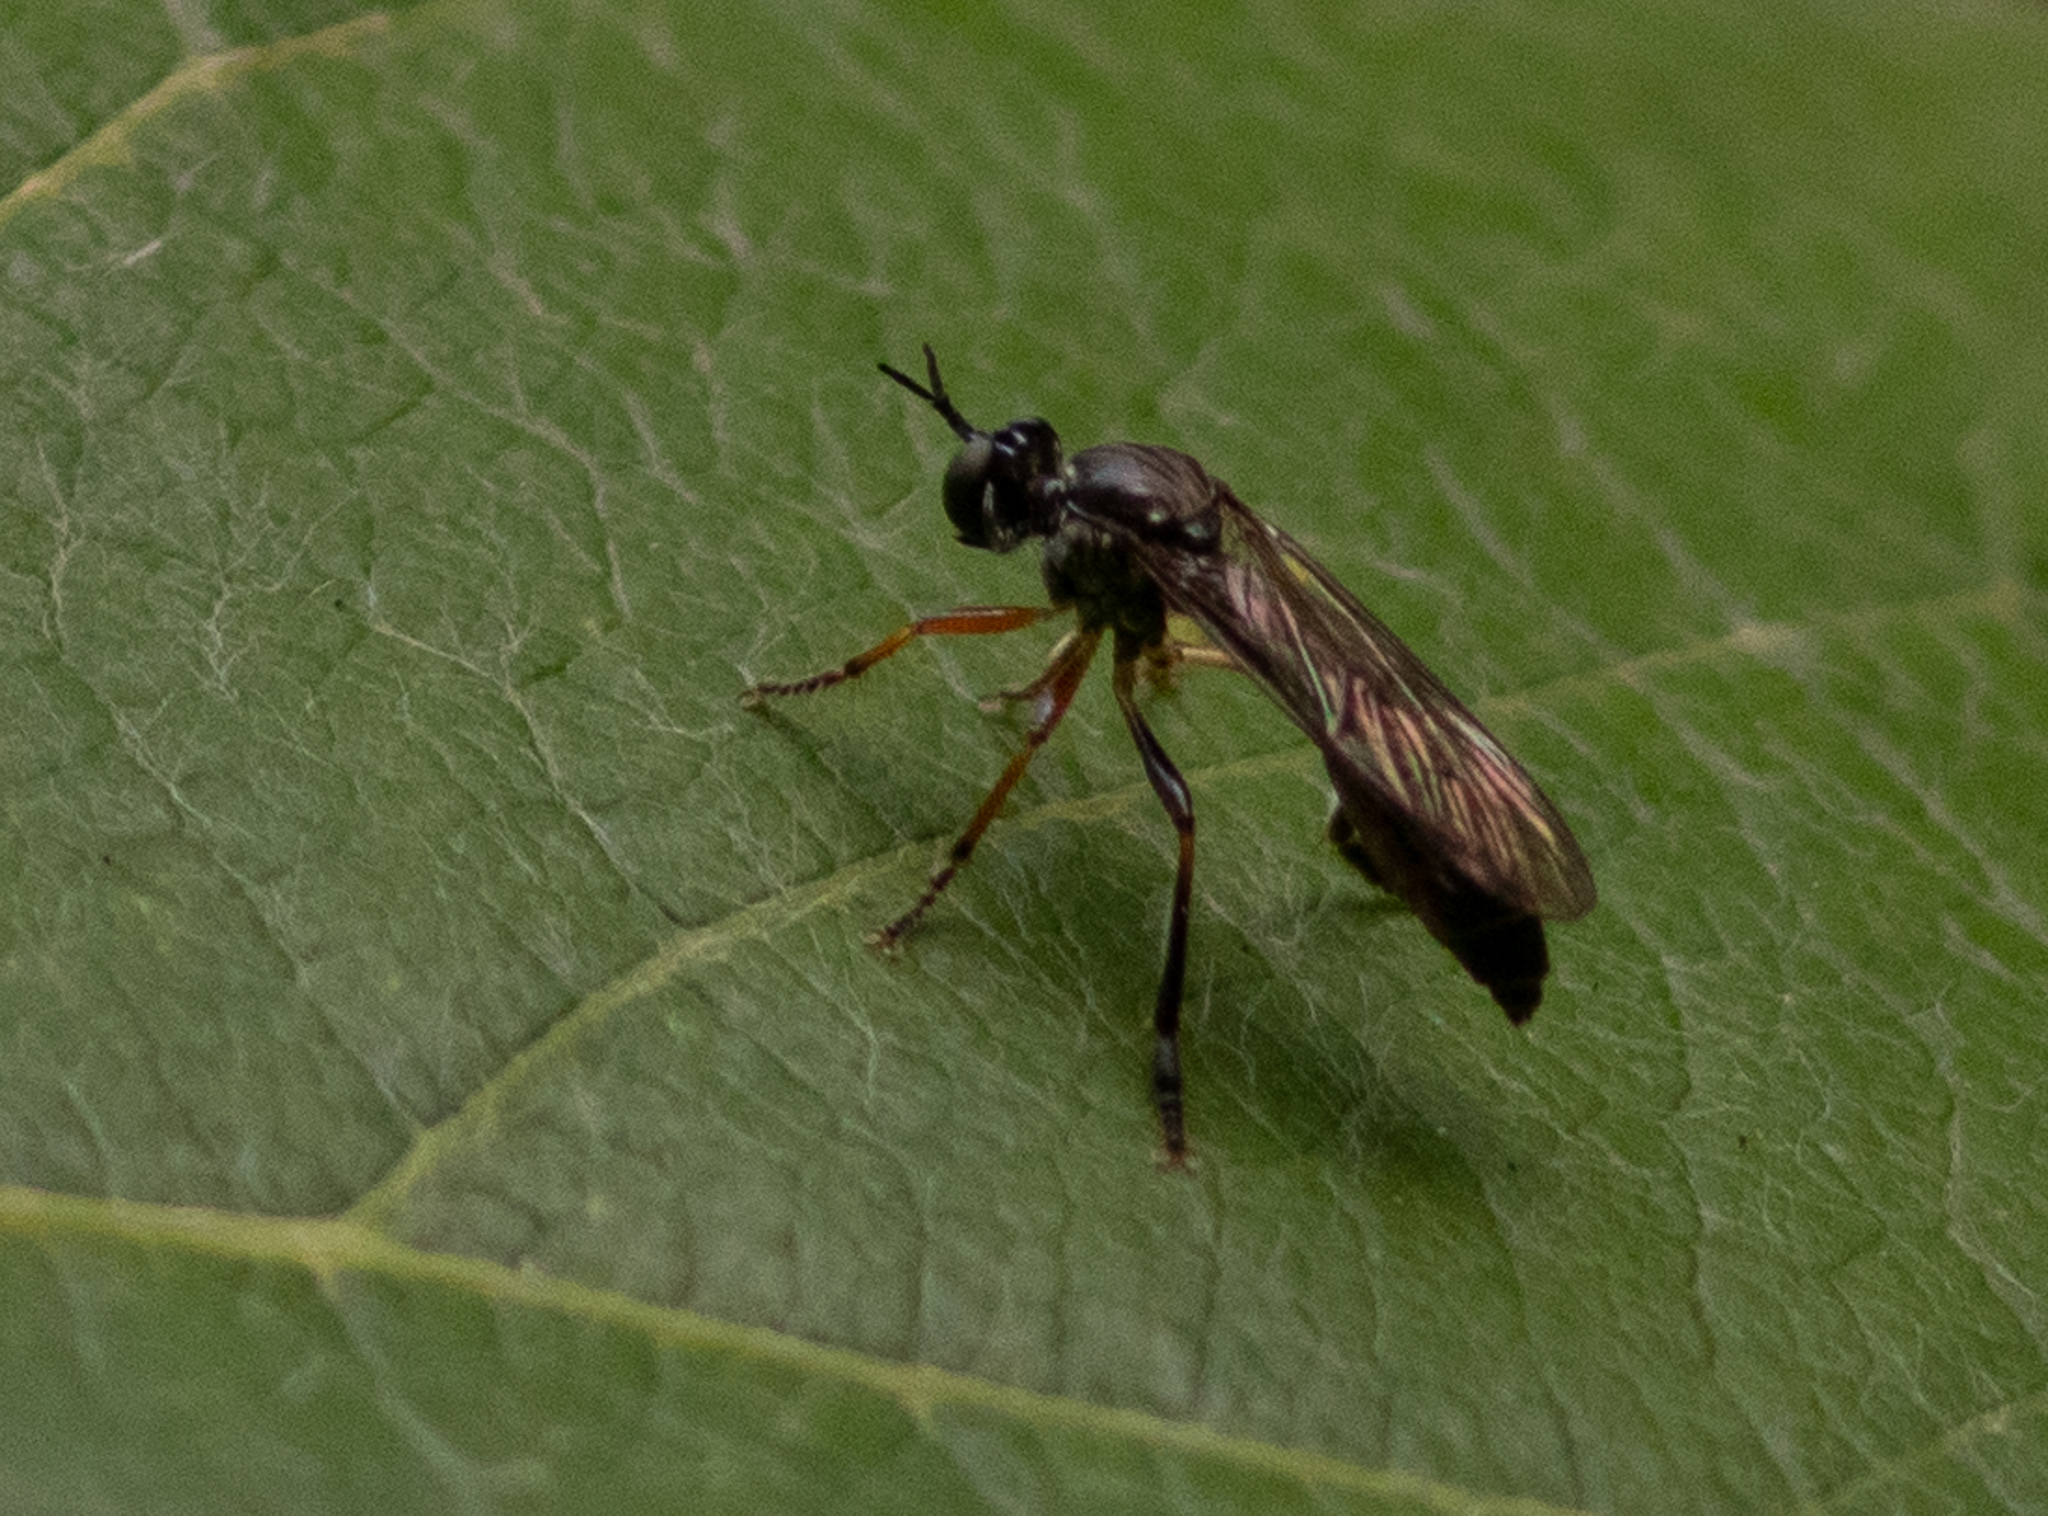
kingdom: Animalia
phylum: Arthropoda
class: Insecta
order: Diptera
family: Asilidae
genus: Dioctria
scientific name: Dioctria hyalipennis
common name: Stripe-legged robberfly
